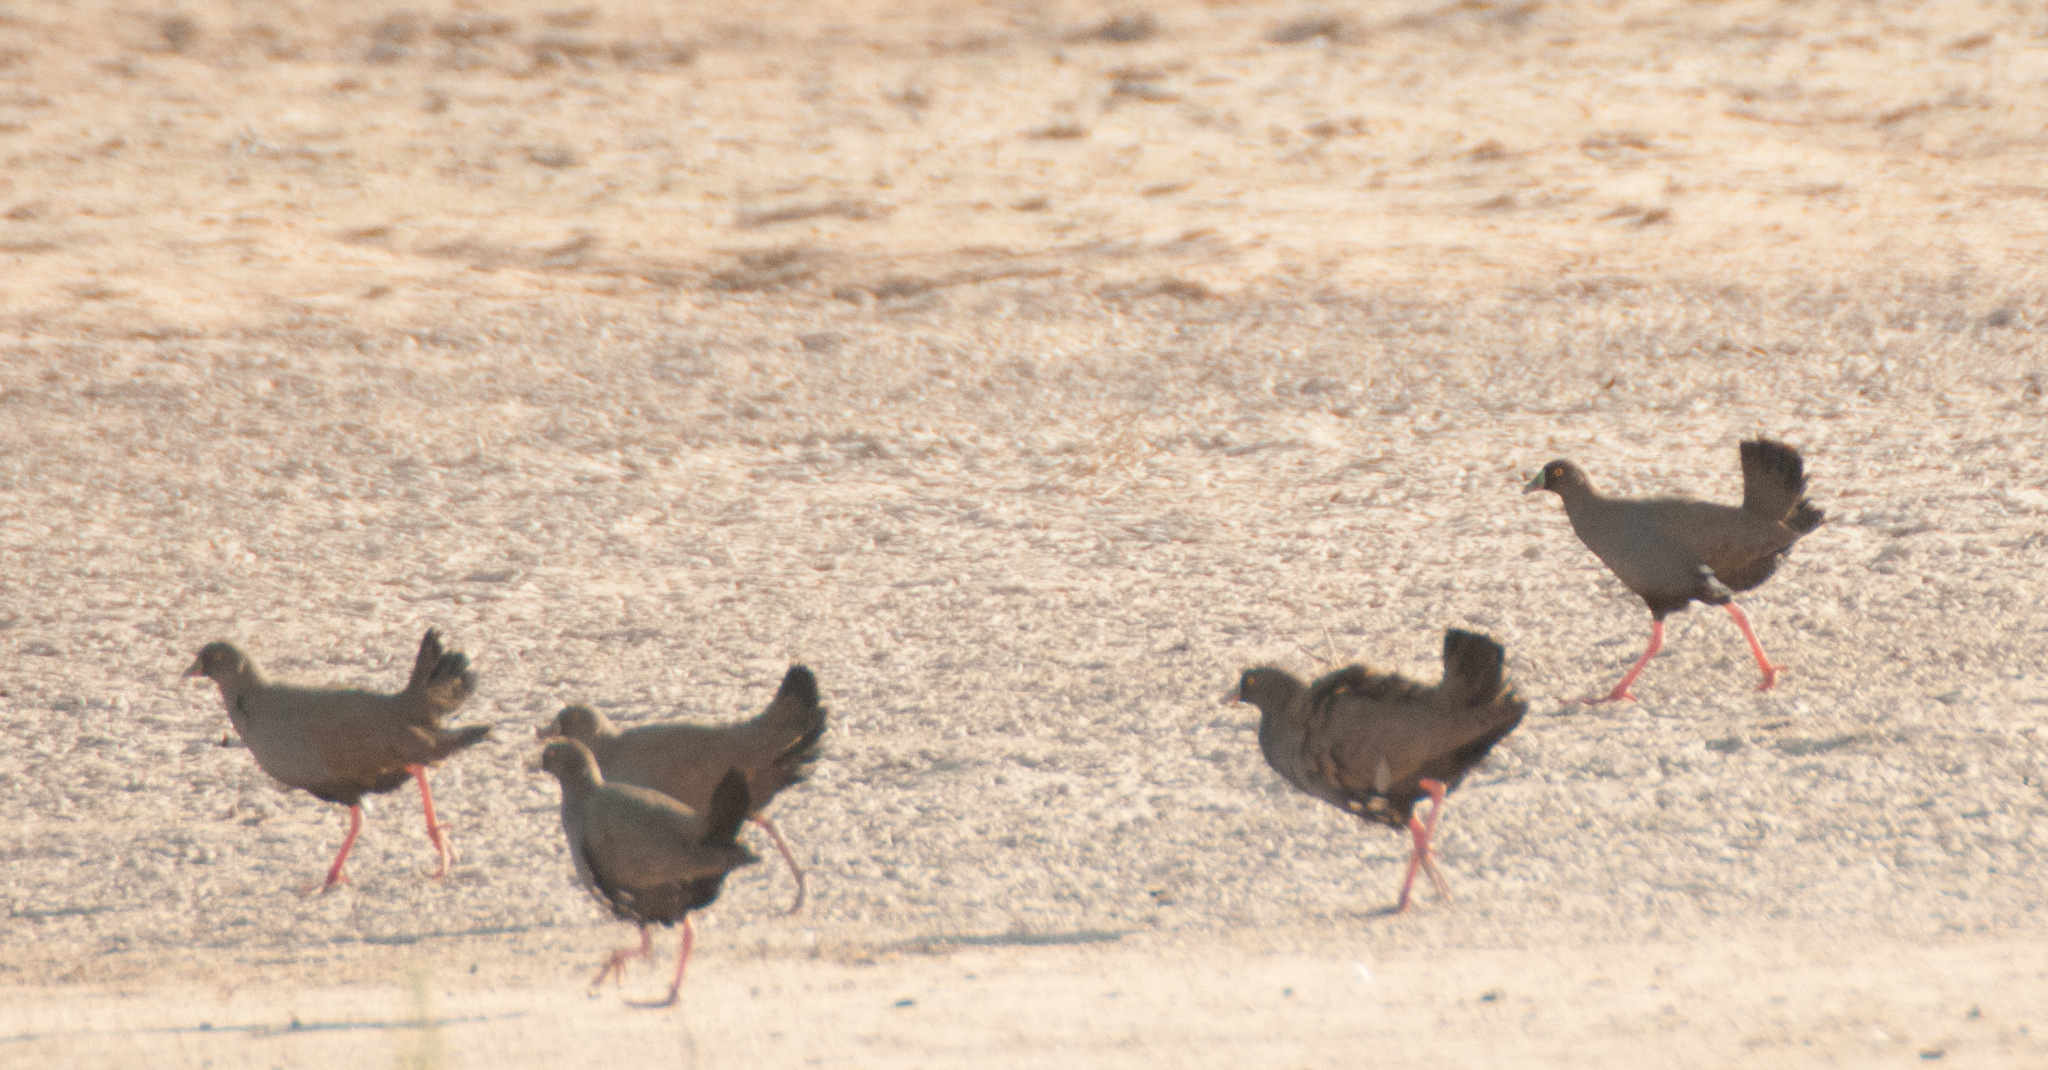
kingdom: Animalia
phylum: Chordata
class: Aves
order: Gruiformes
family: Rallidae
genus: Gallinula
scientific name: Gallinula ventralis
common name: Black-tailed nativehen
